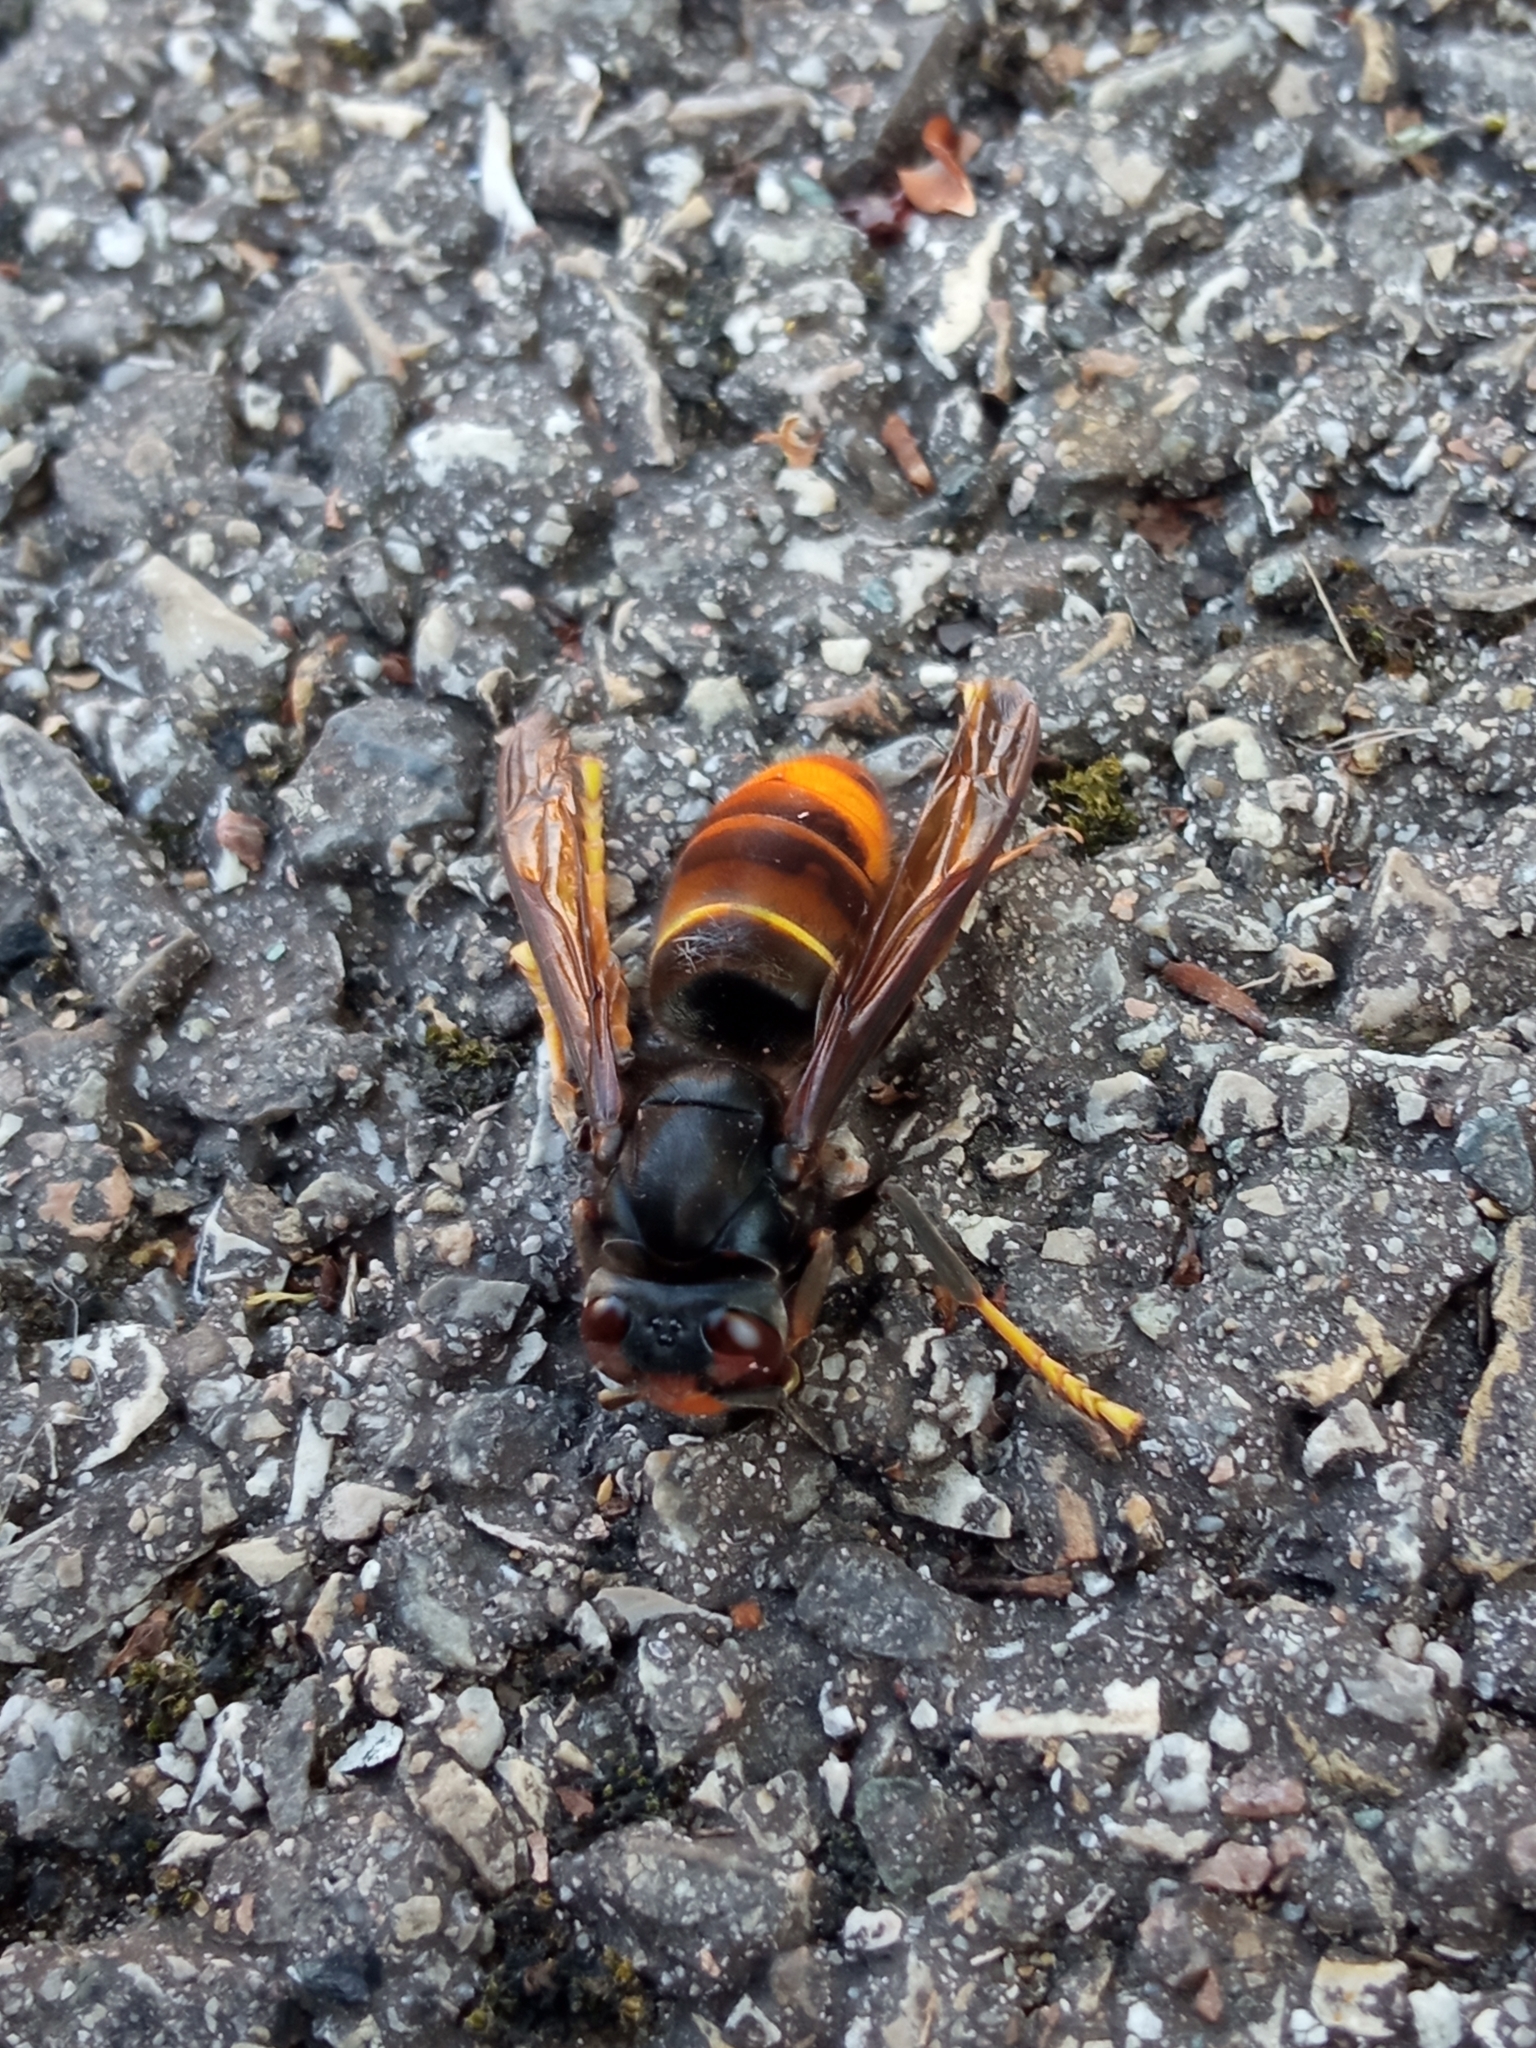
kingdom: Animalia
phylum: Arthropoda
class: Insecta
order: Hymenoptera
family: Vespidae
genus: Vespa
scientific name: Vespa velutina
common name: Asian hornet
